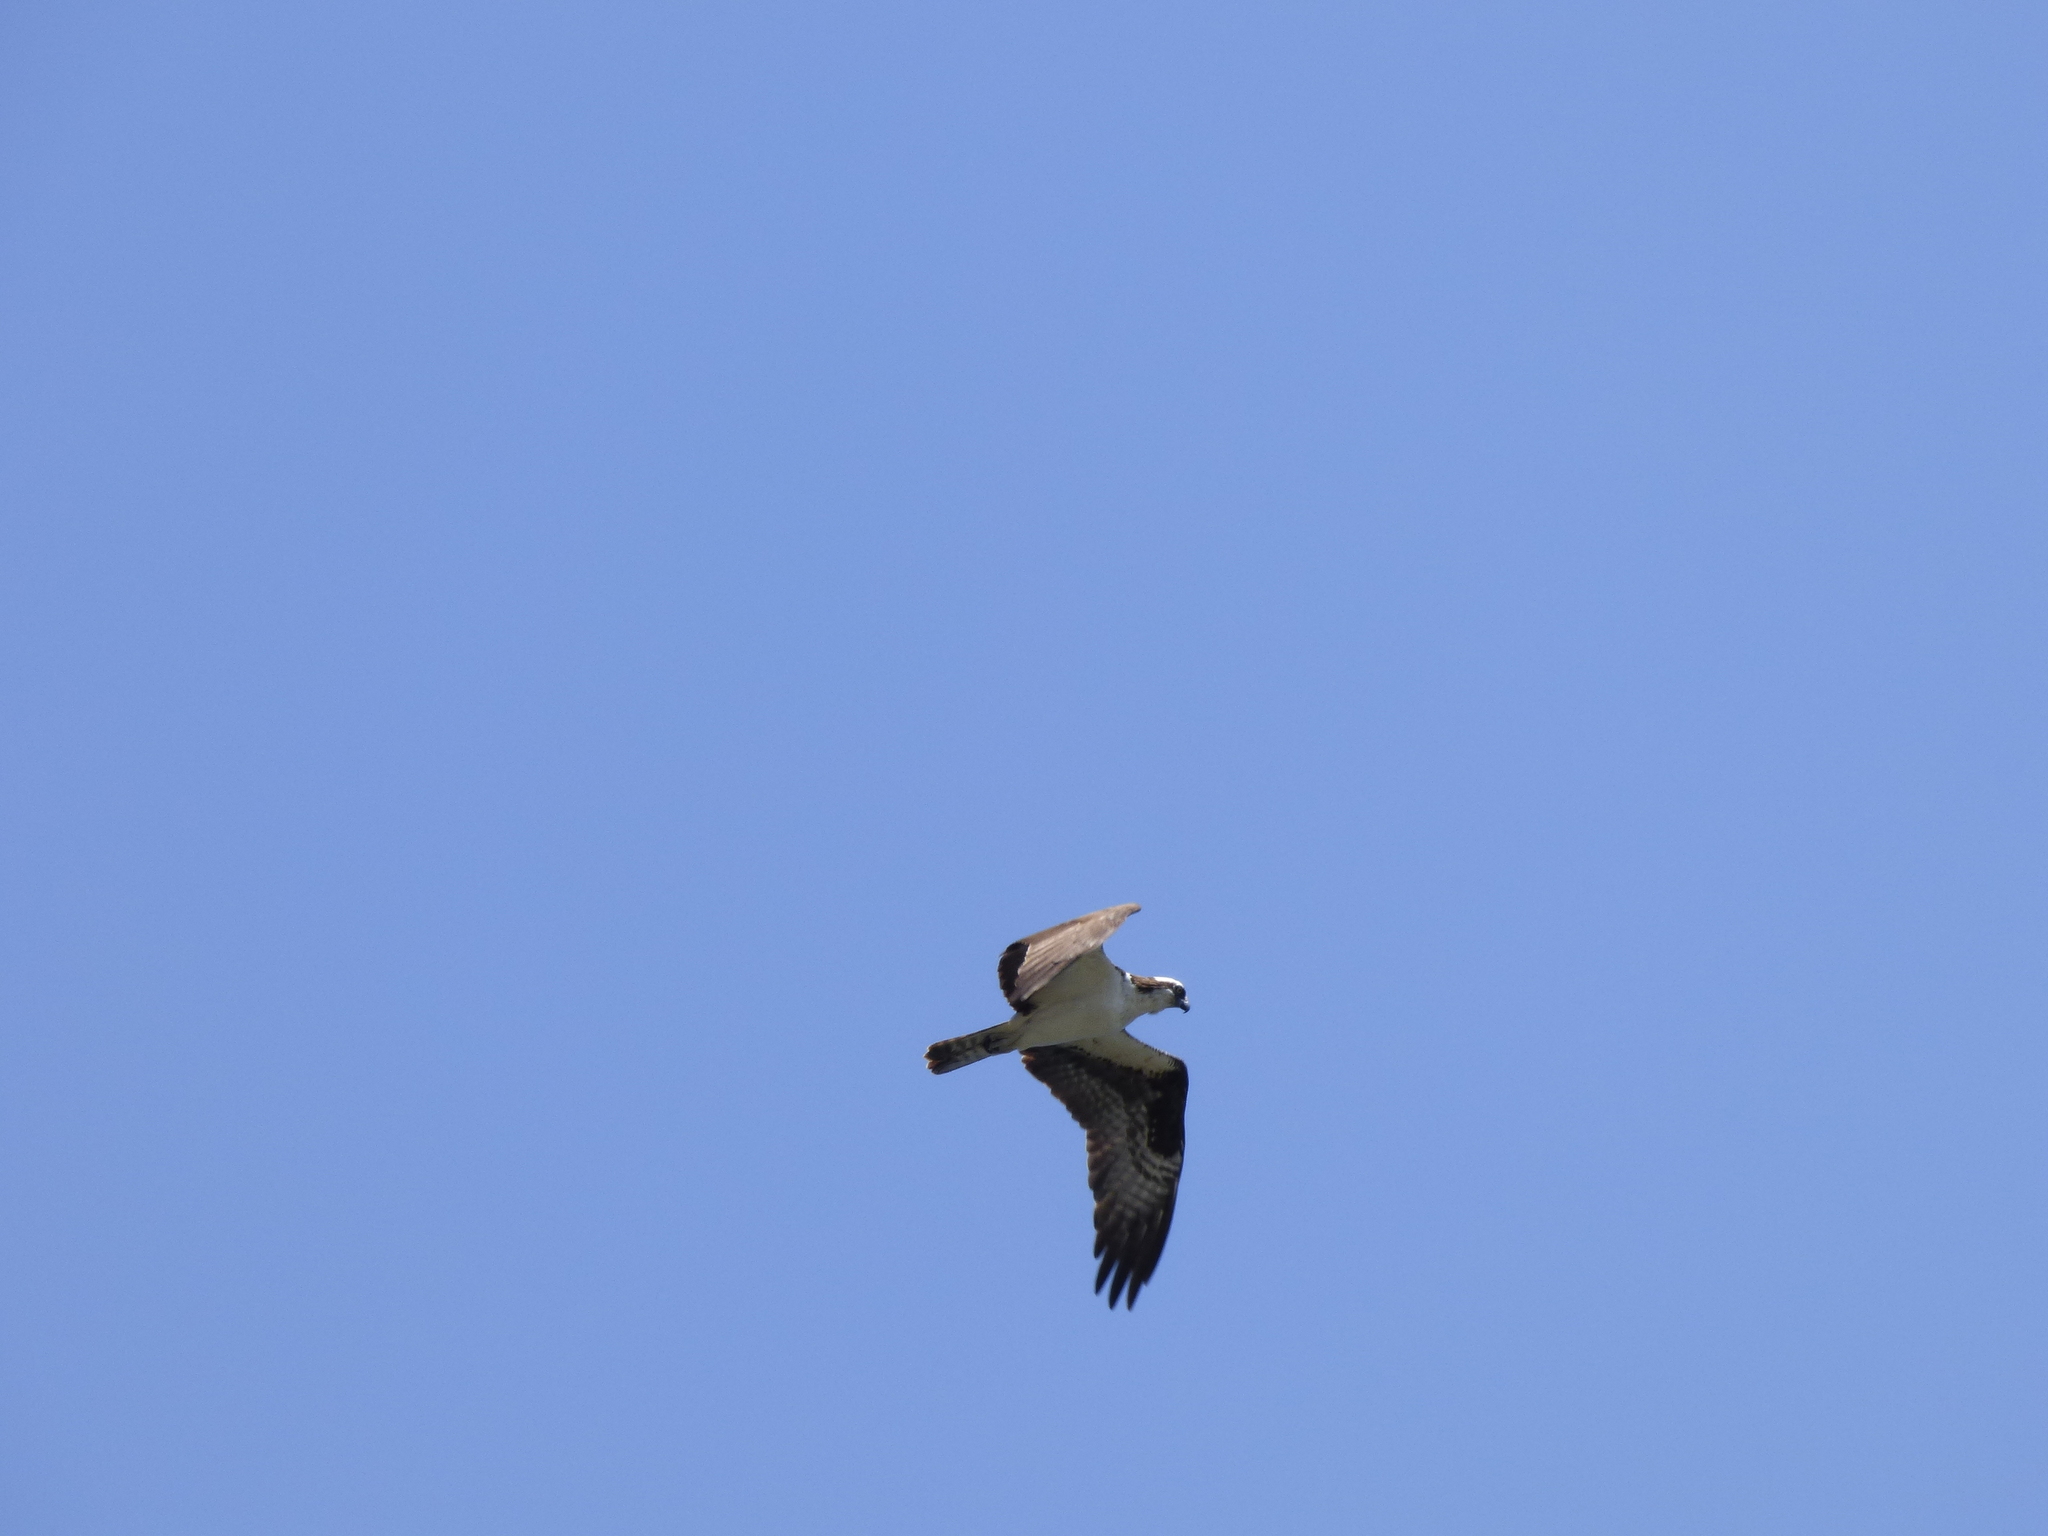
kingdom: Animalia
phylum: Chordata
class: Aves
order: Accipitriformes
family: Pandionidae
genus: Pandion
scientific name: Pandion haliaetus
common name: Osprey
